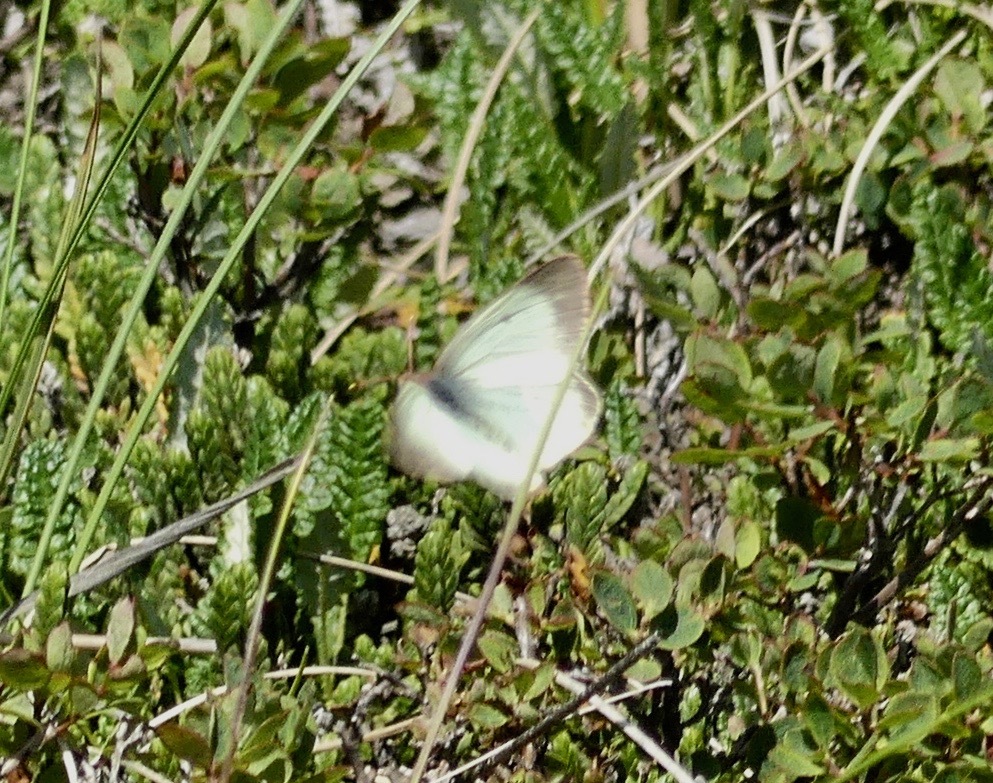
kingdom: Animalia
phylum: Arthropoda
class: Insecta
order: Lepidoptera
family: Pieridae
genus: Colias
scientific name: Colias palaeno
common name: Moorland clouded yellow
